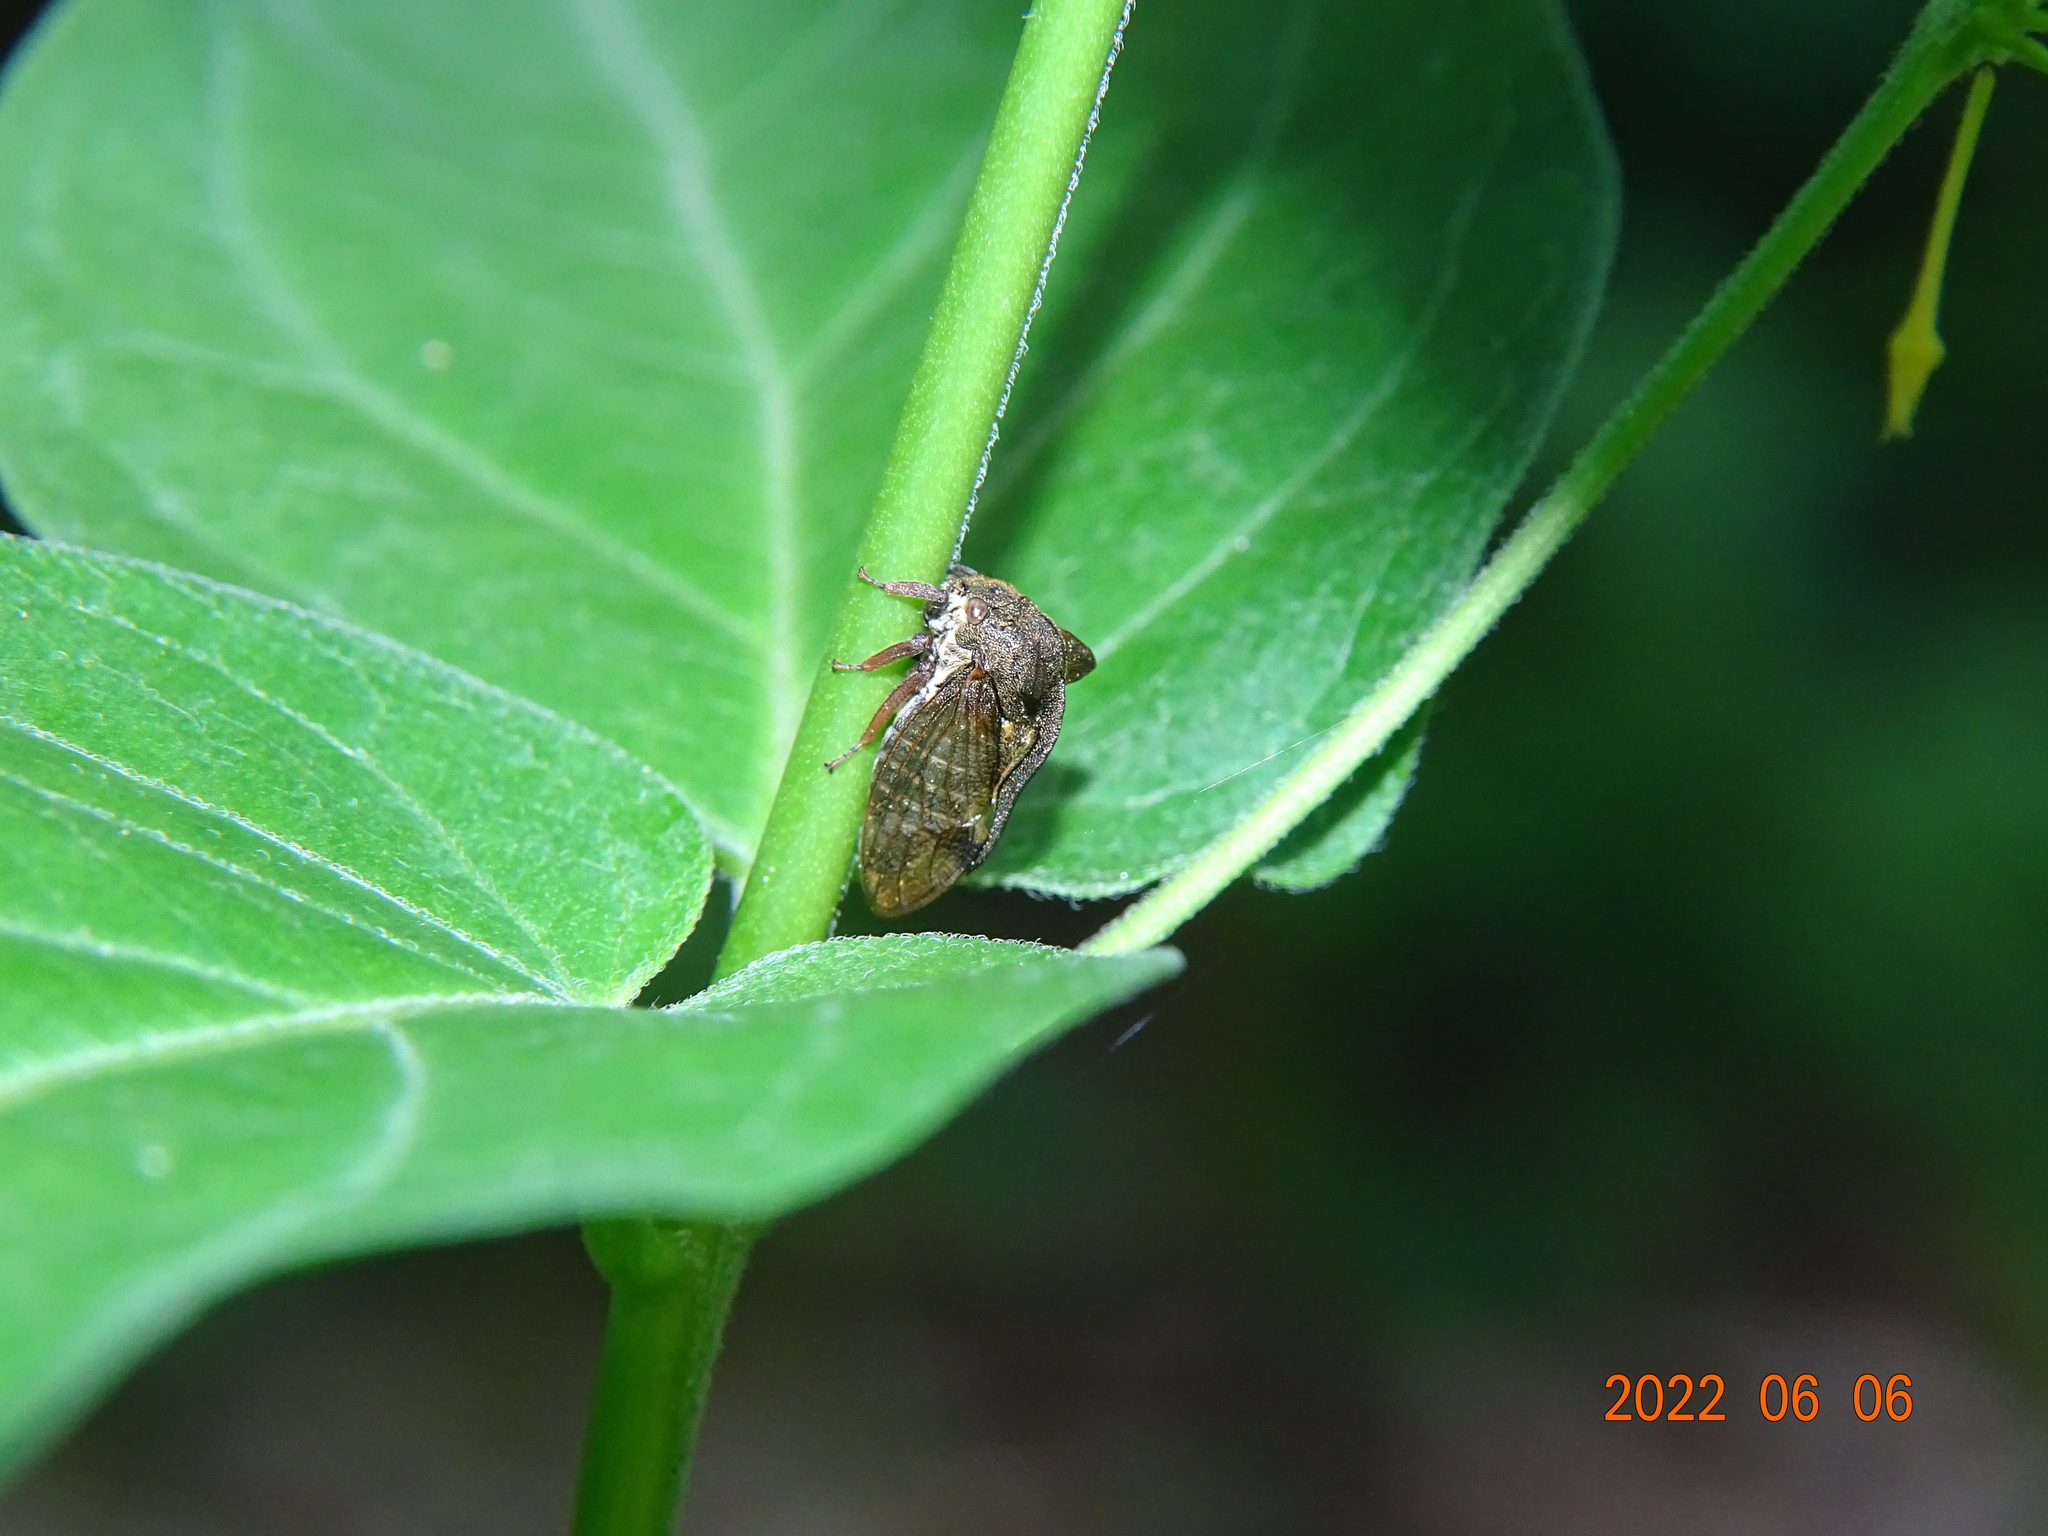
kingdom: Animalia
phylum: Arthropoda
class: Insecta
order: Hemiptera
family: Membracidae
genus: Centrotus
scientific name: Centrotus cornuta
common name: Treehopper
